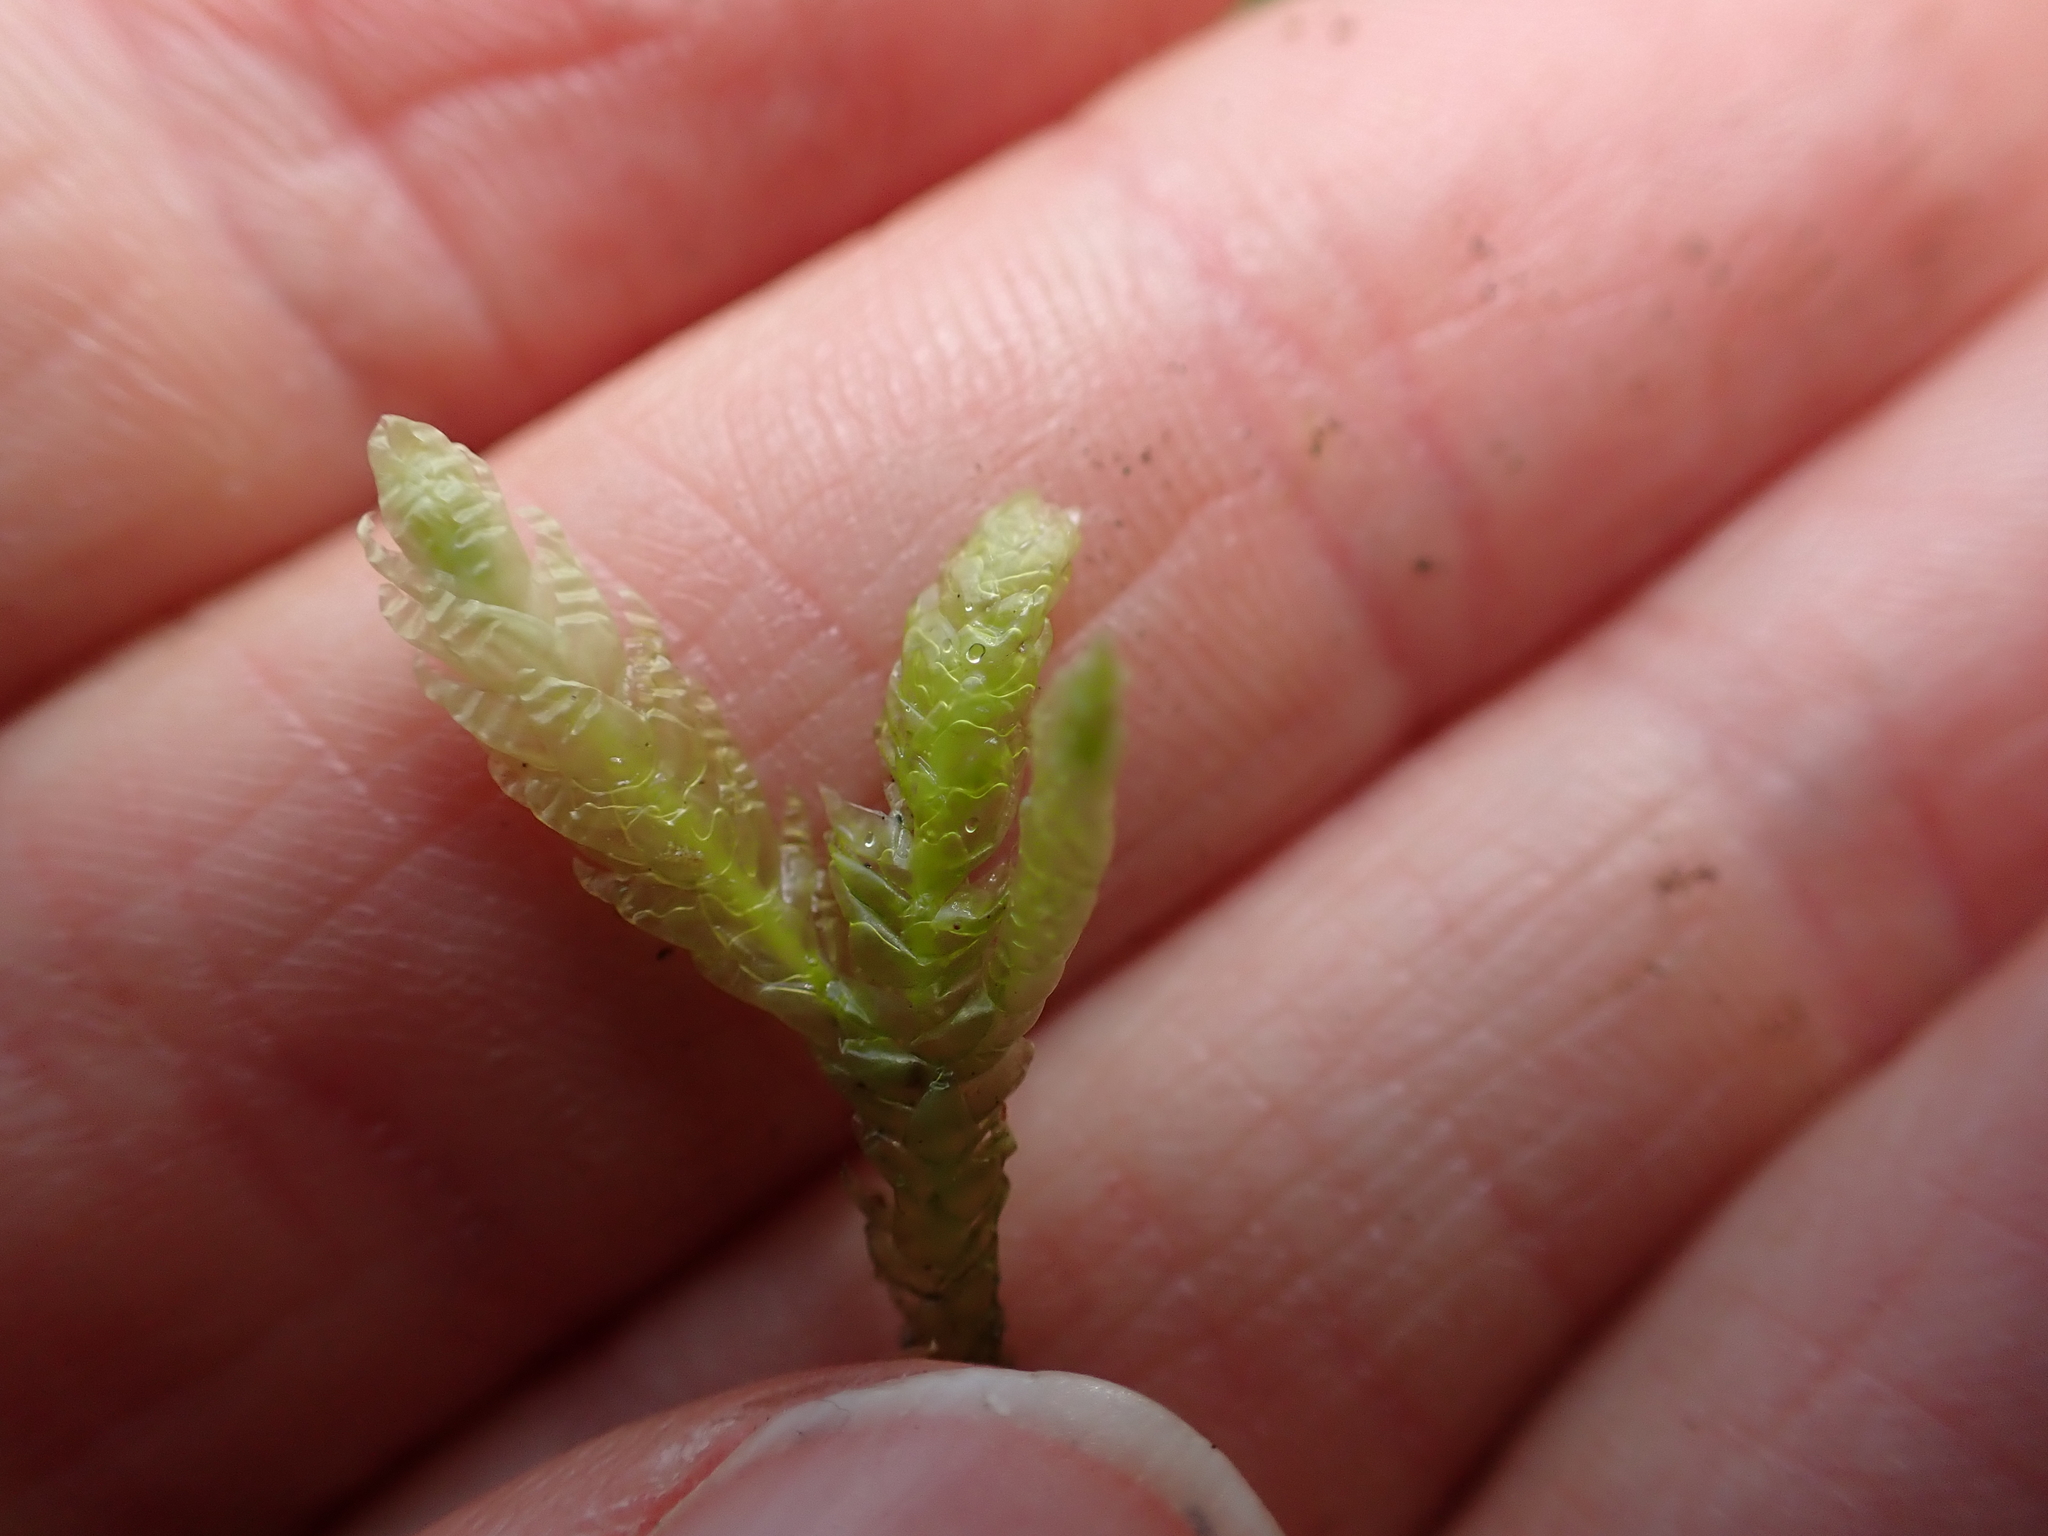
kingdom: Plantae
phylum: Bryophyta
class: Bryopsida
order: Hypnales
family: Plagiotheciaceae
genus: Plagiothecium
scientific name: Plagiothecium undulatum
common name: Waved silk-moss
